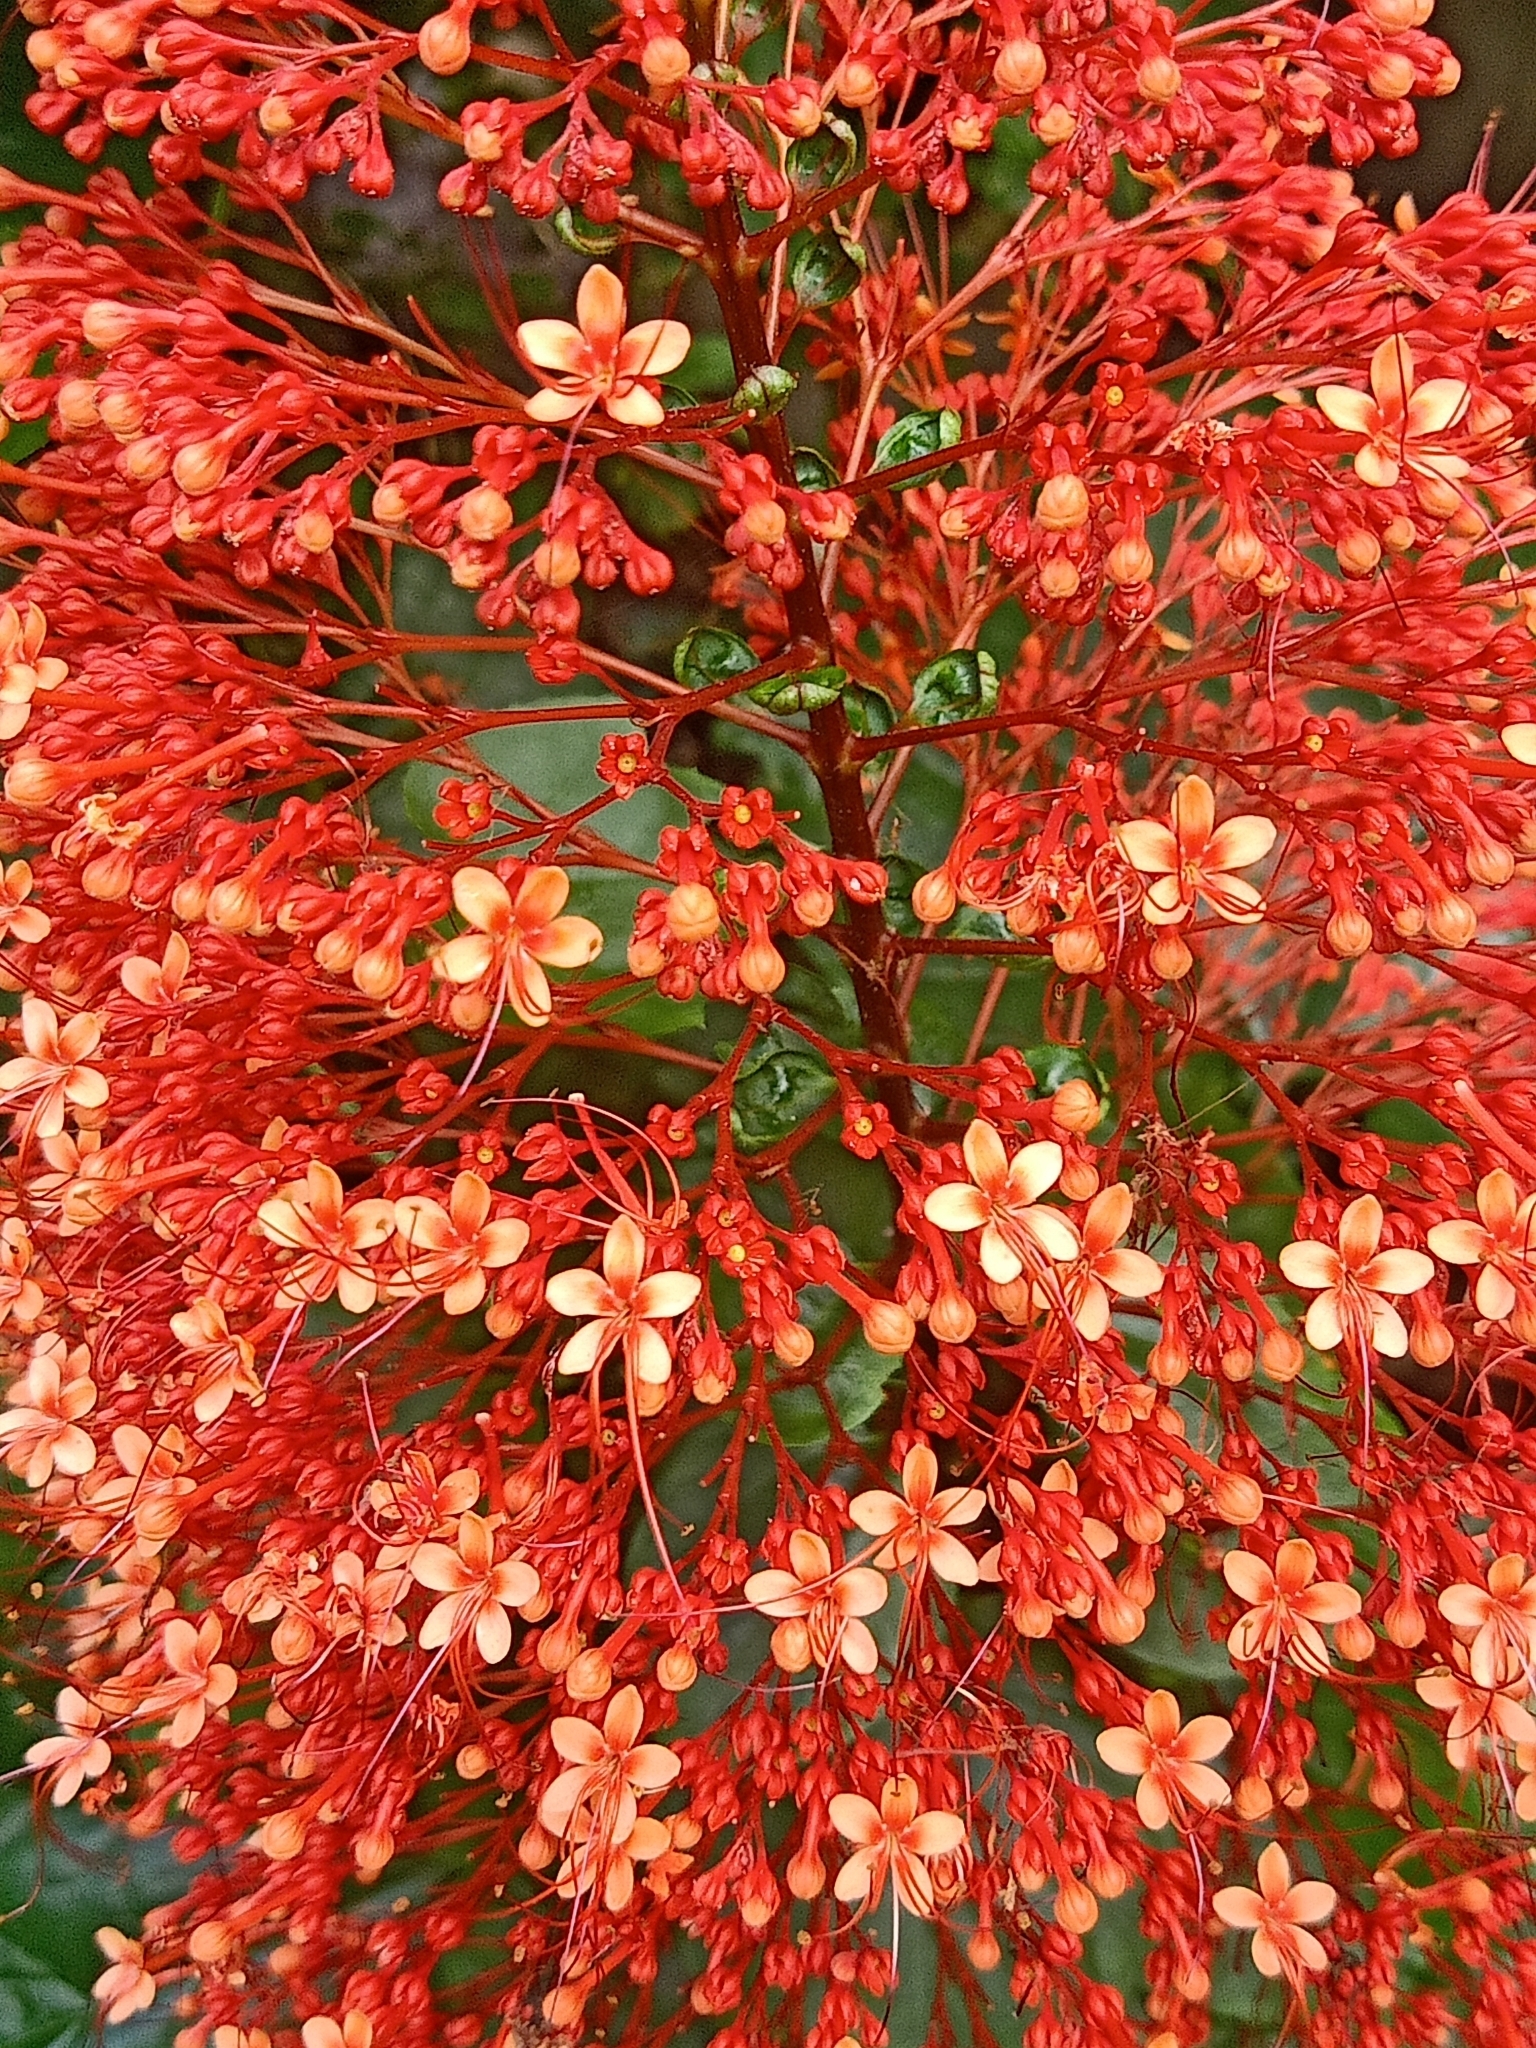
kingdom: Plantae
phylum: Tracheophyta
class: Magnoliopsida
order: Lamiales
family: Lamiaceae
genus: Clerodendrum
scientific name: Clerodendrum paniculatum
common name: Pagoda-flower
